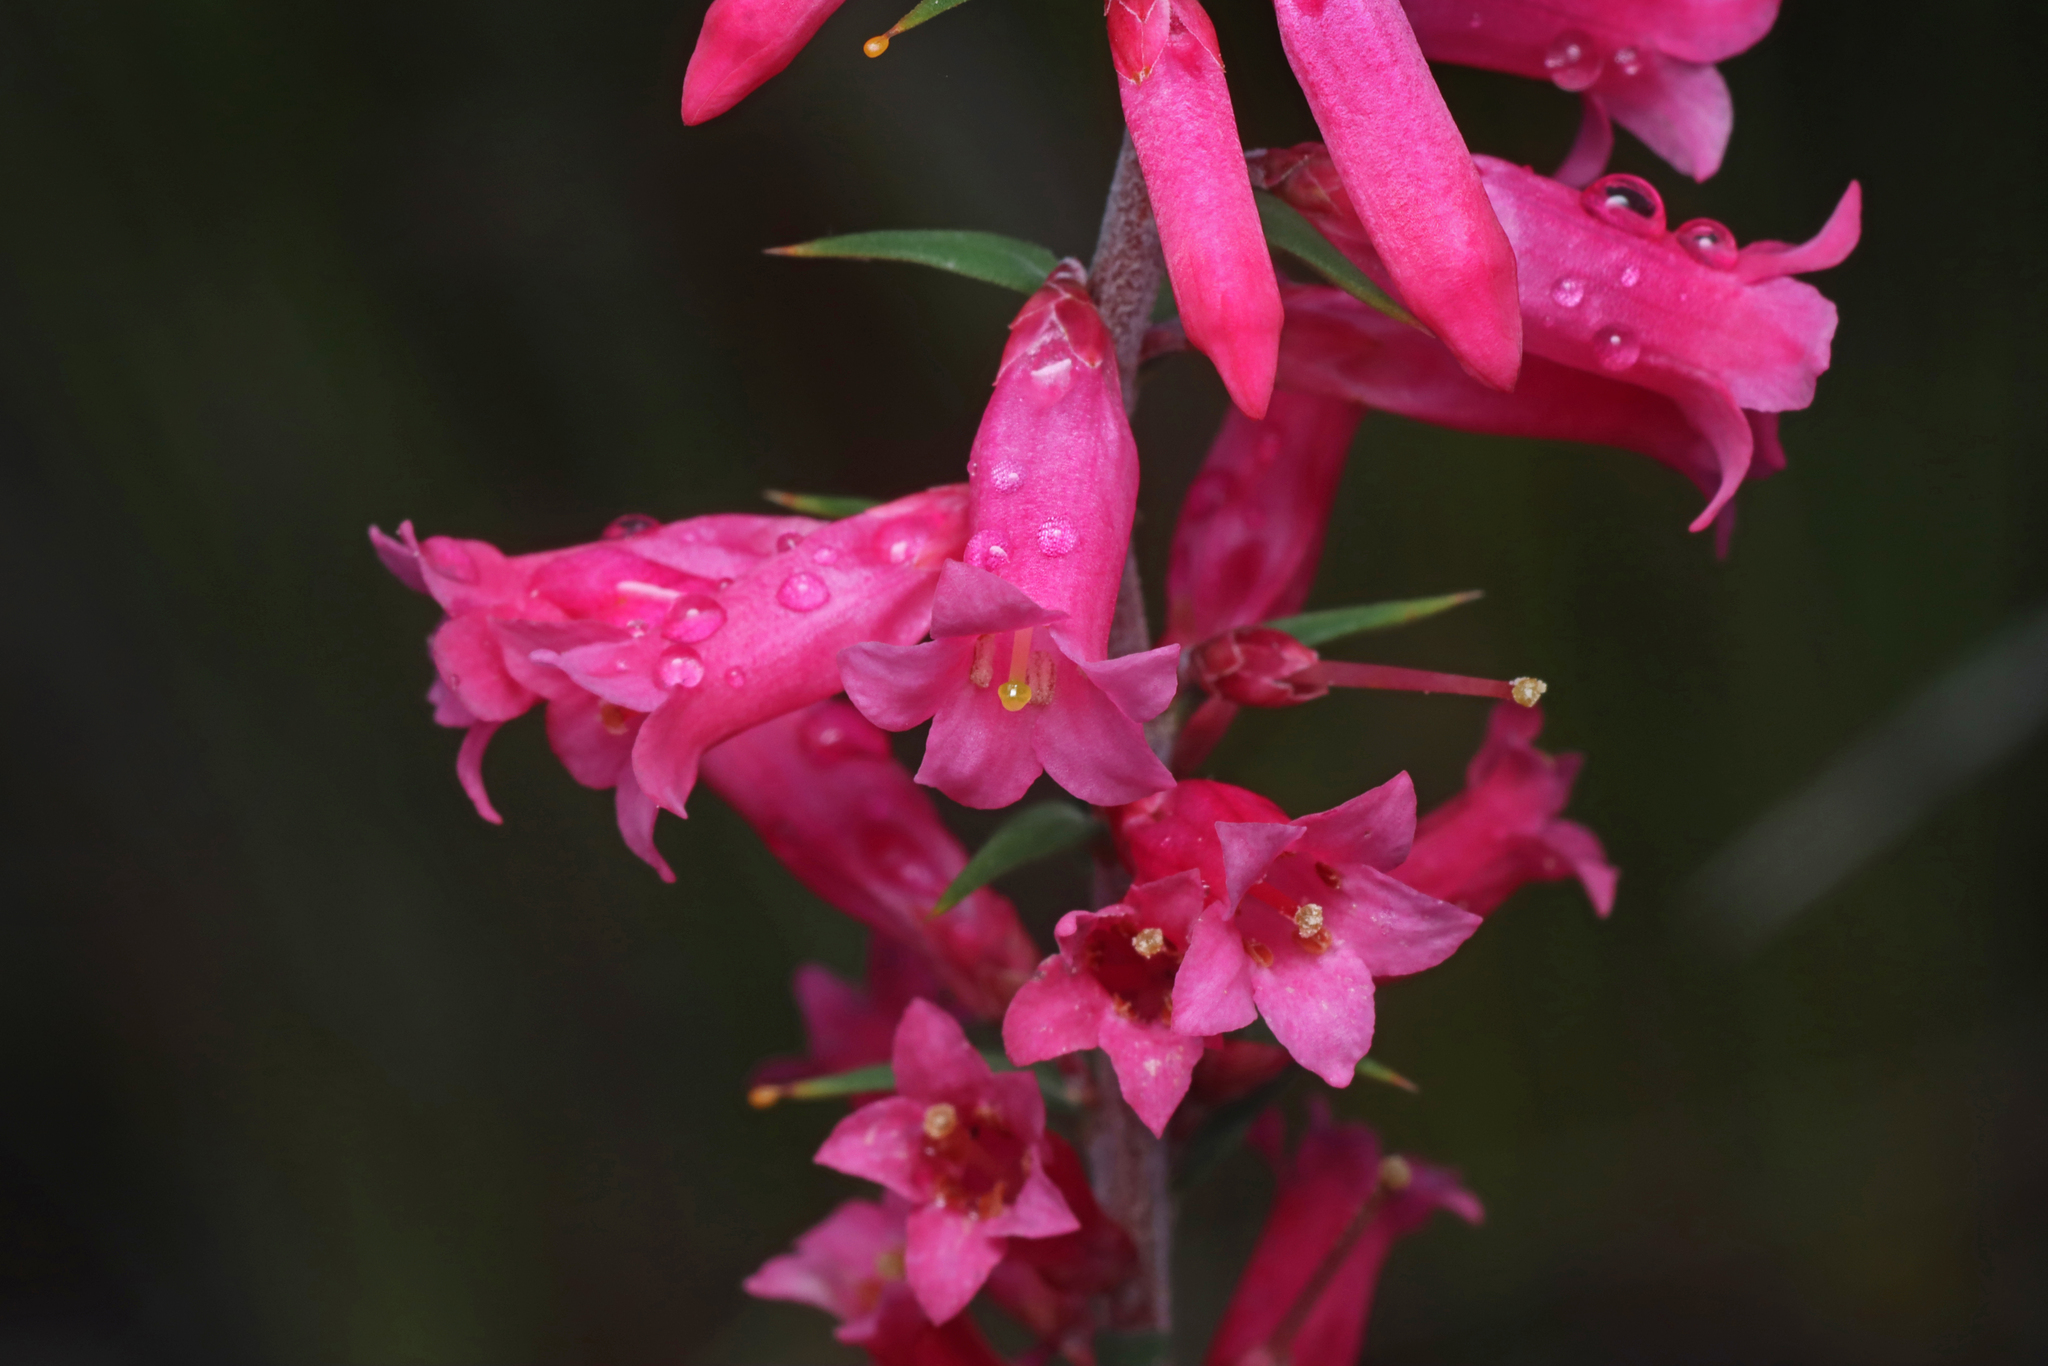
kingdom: Plantae
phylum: Tracheophyta
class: Magnoliopsida
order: Ericales
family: Ericaceae
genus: Epacris
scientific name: Epacris impressa
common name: Common-heath
